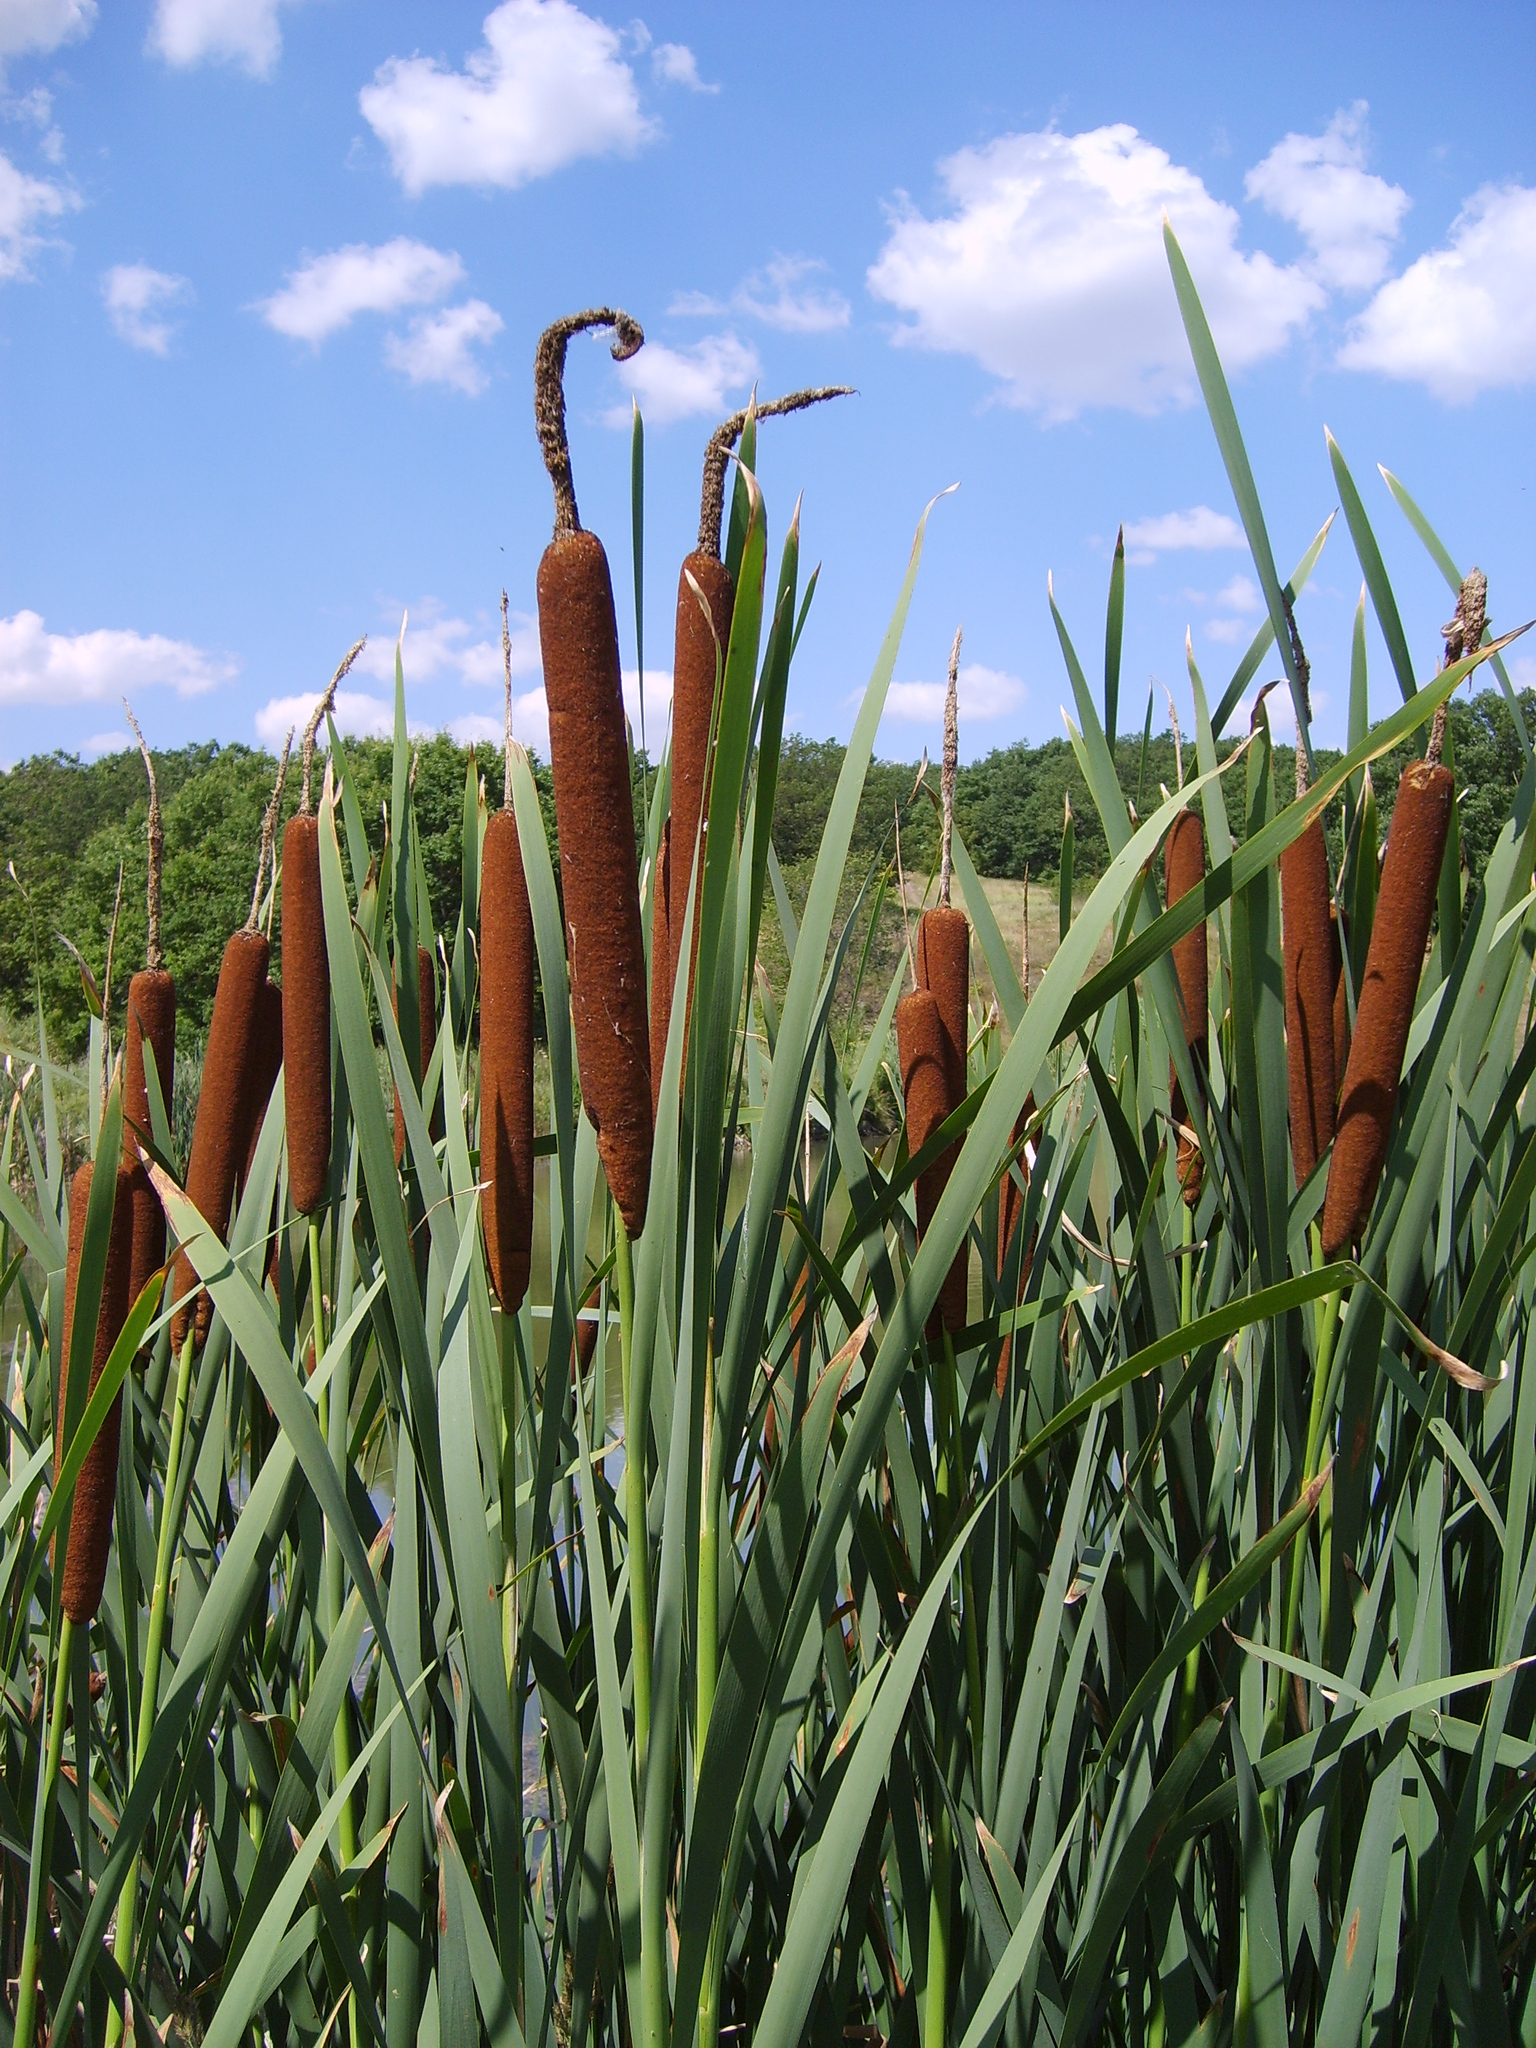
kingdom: Plantae
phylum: Tracheophyta
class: Liliopsida
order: Poales
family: Typhaceae
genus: Typha
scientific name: Typha latifolia
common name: Broadleaf cattail
